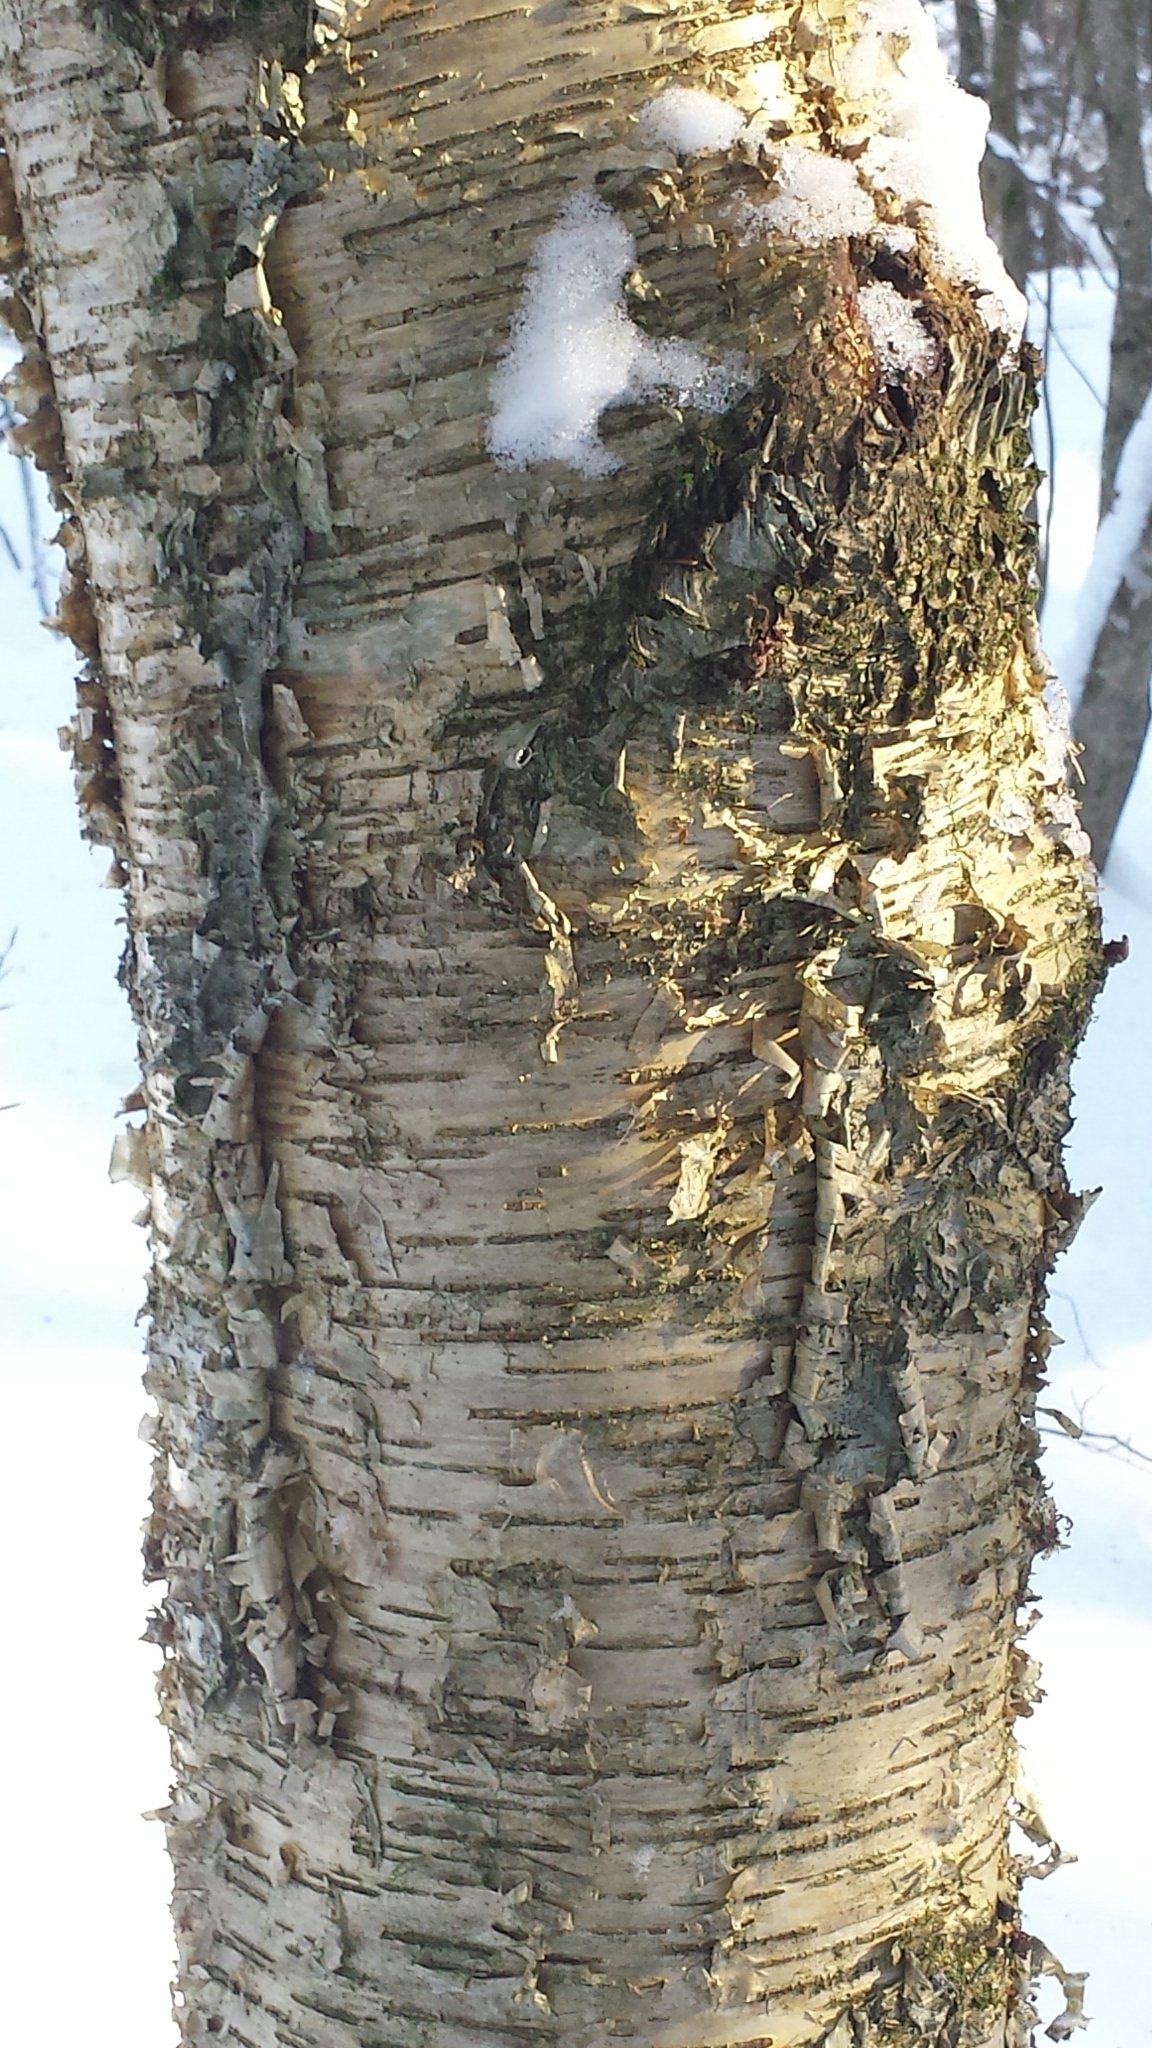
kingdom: Plantae
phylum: Tracheophyta
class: Magnoliopsida
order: Fagales
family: Betulaceae
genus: Betula
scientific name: Betula alleghaniensis
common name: Yellow birch
